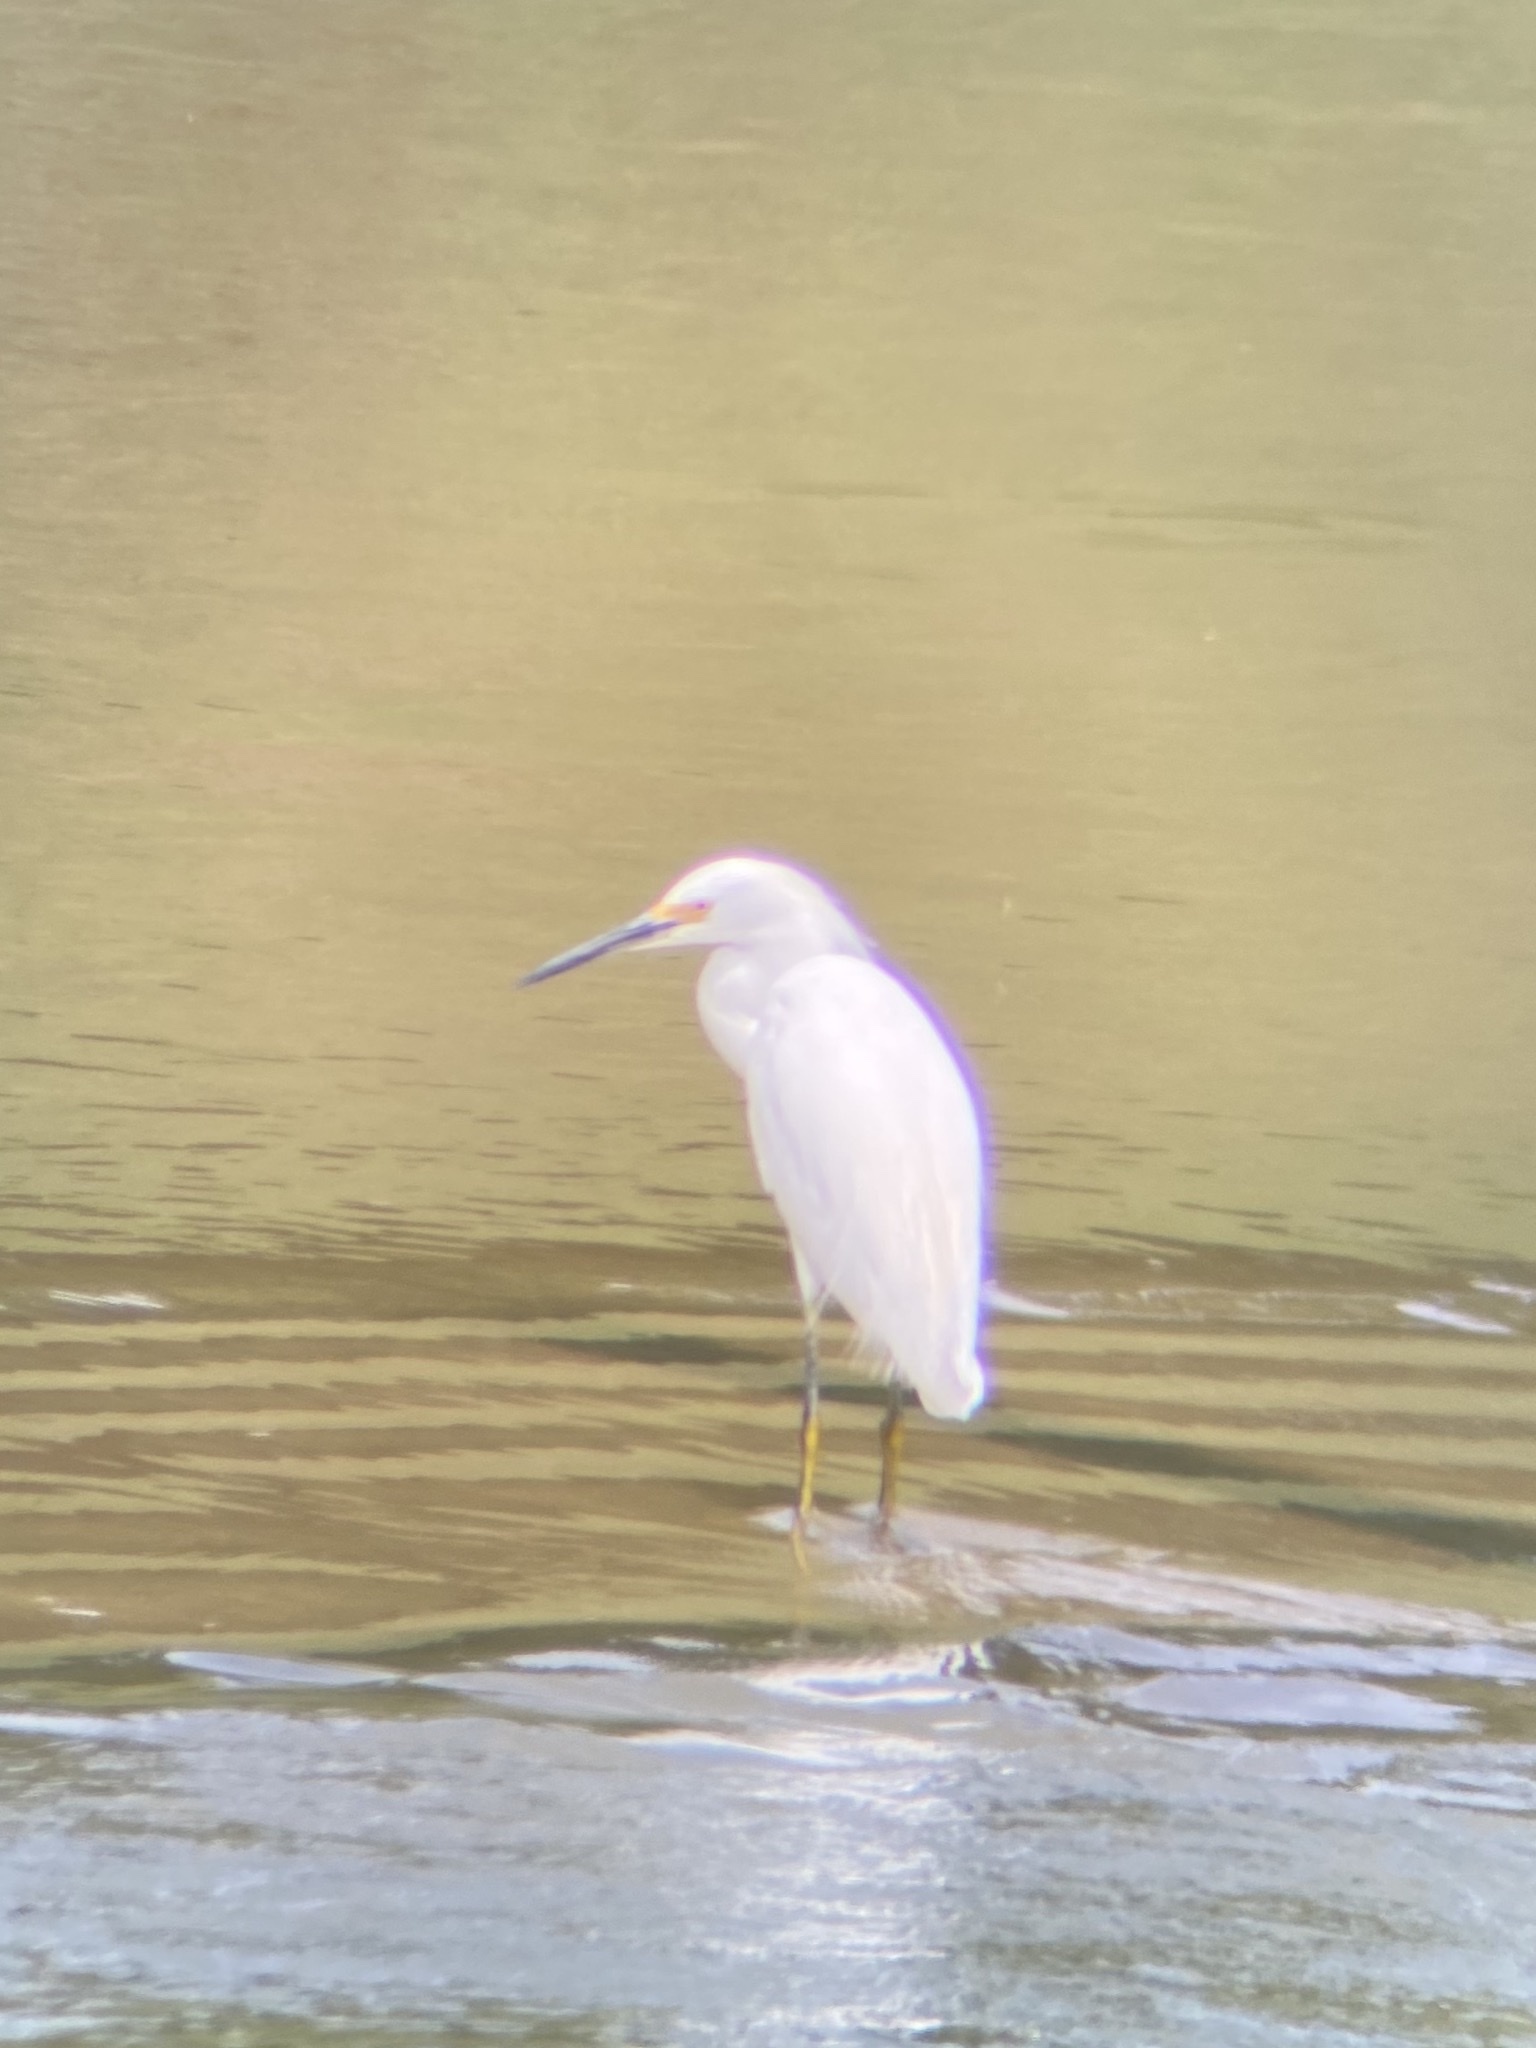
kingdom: Animalia
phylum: Chordata
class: Aves
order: Pelecaniformes
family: Ardeidae
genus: Egretta
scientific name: Egretta thula
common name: Snowy egret
